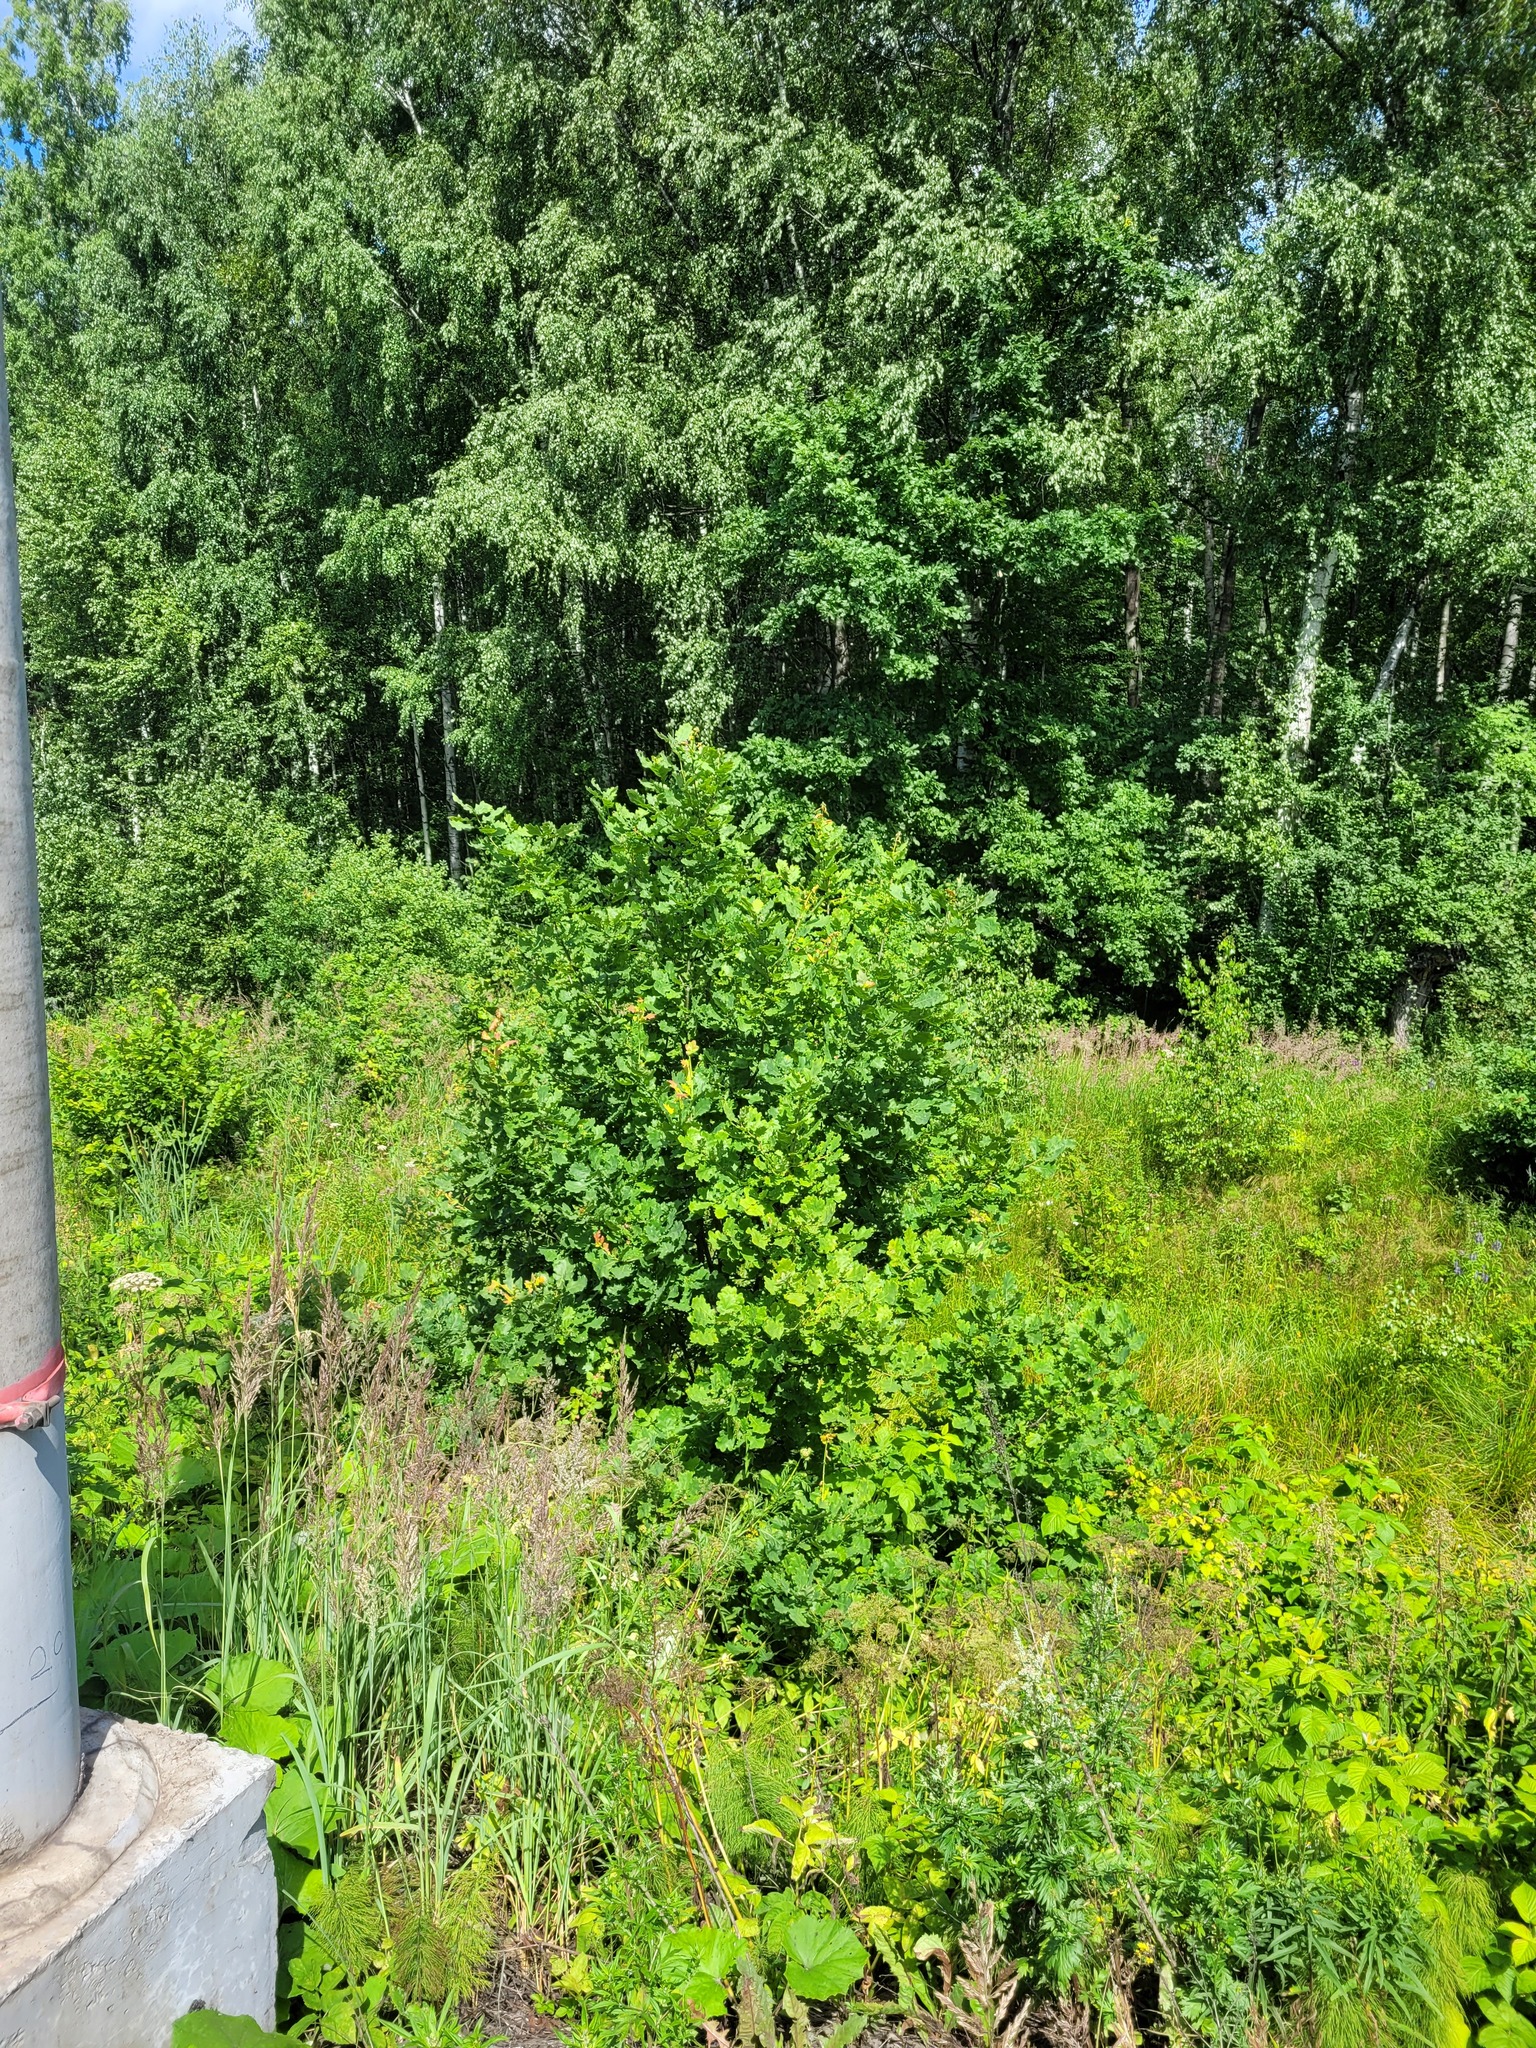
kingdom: Plantae
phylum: Tracheophyta
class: Magnoliopsida
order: Fagales
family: Fagaceae
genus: Quercus
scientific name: Quercus robur
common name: Pedunculate oak
